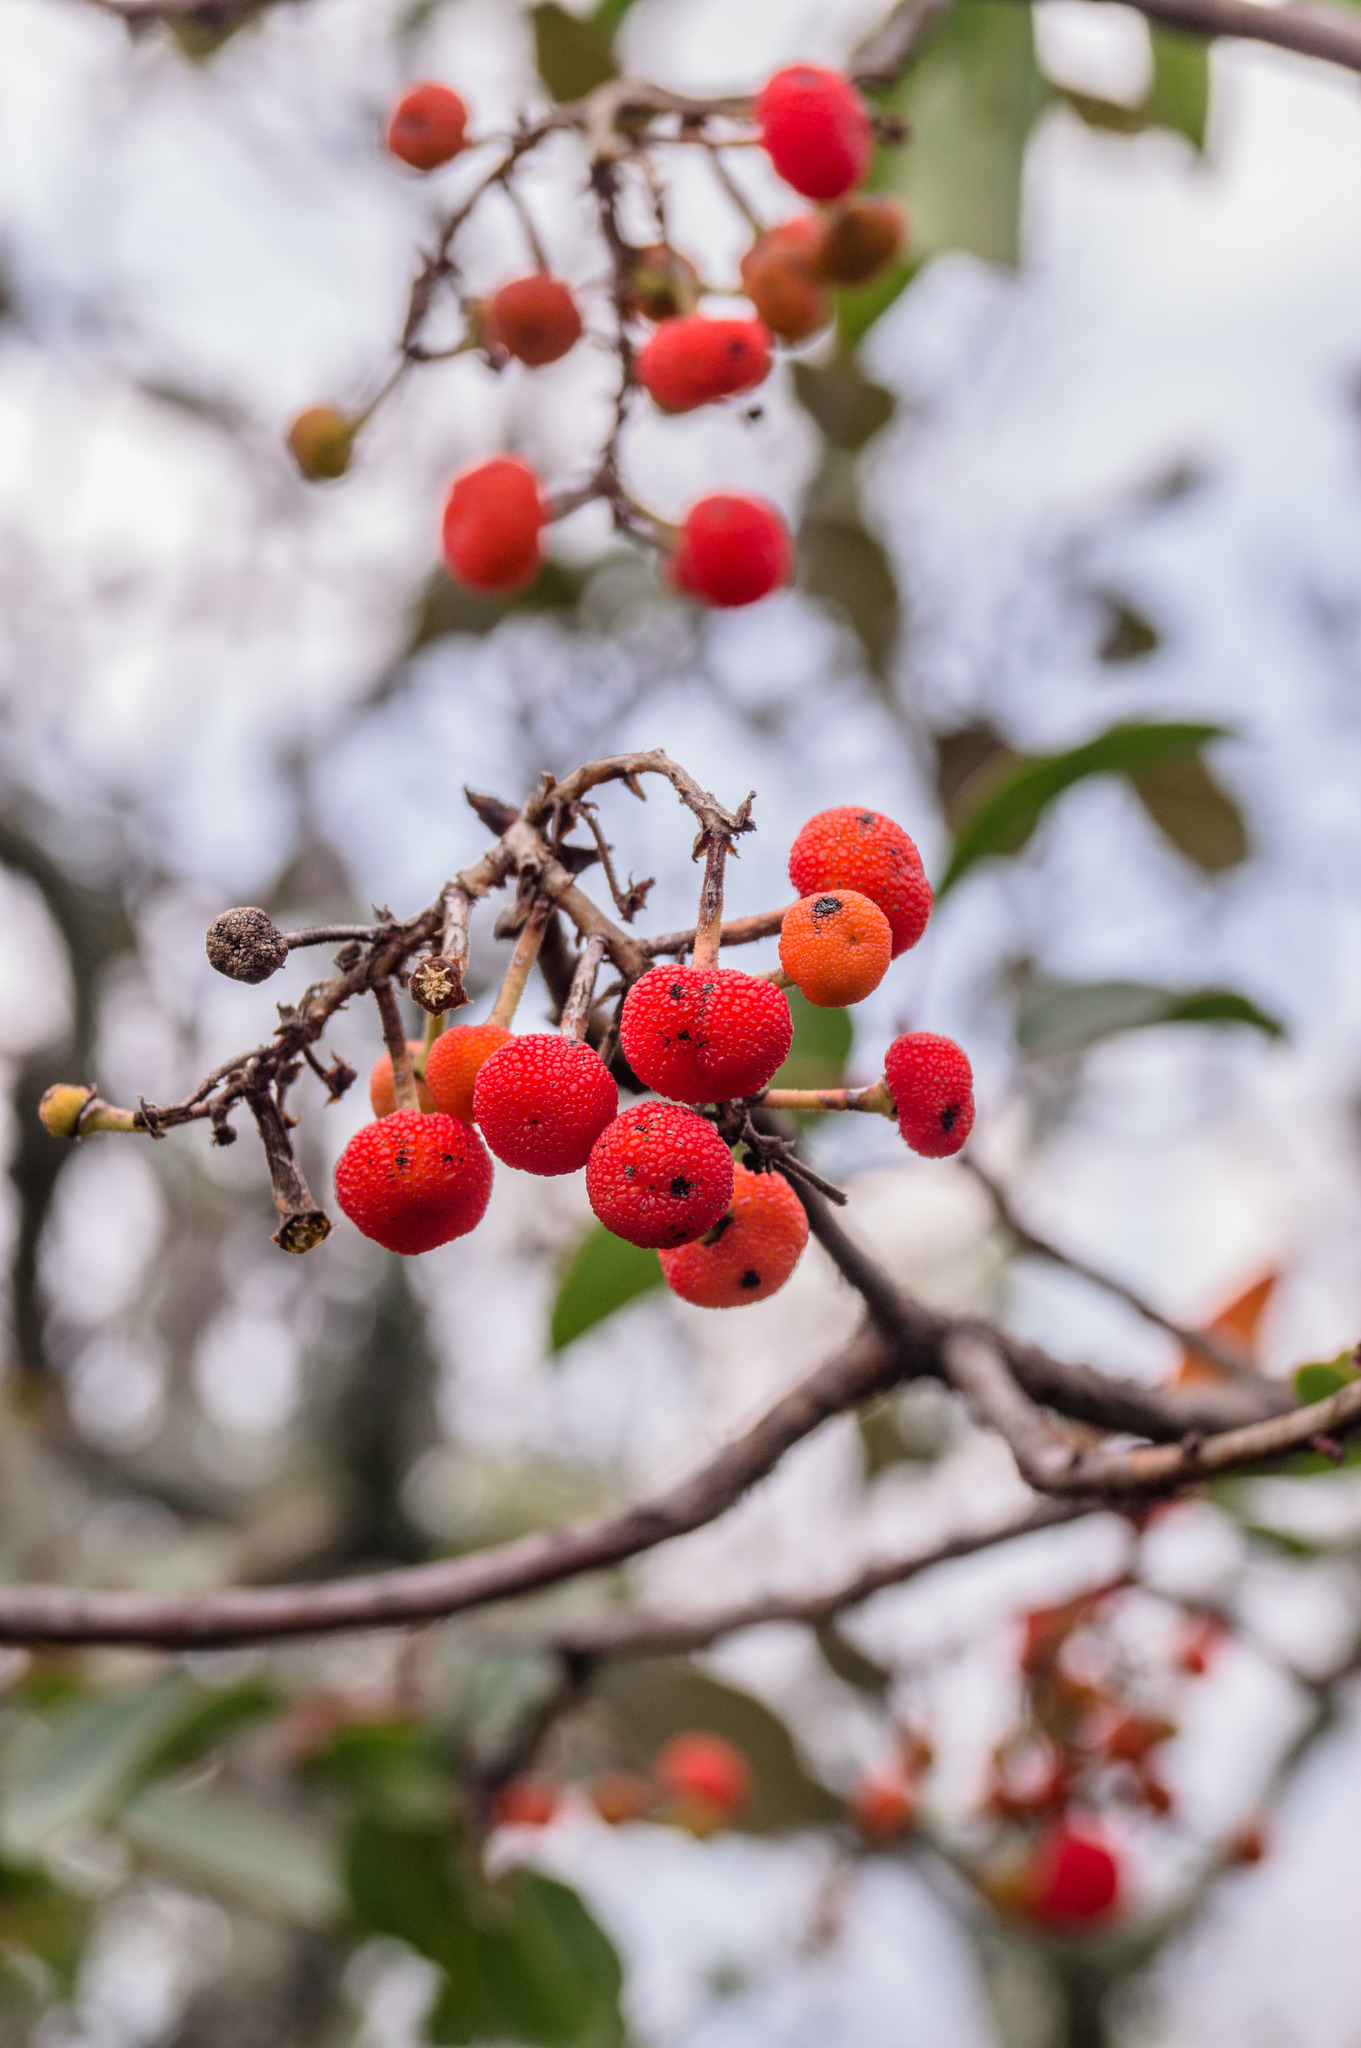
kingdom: Plantae
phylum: Tracheophyta
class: Magnoliopsida
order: Ericales
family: Ericaceae
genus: Arbutus
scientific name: Arbutus xalapensis
